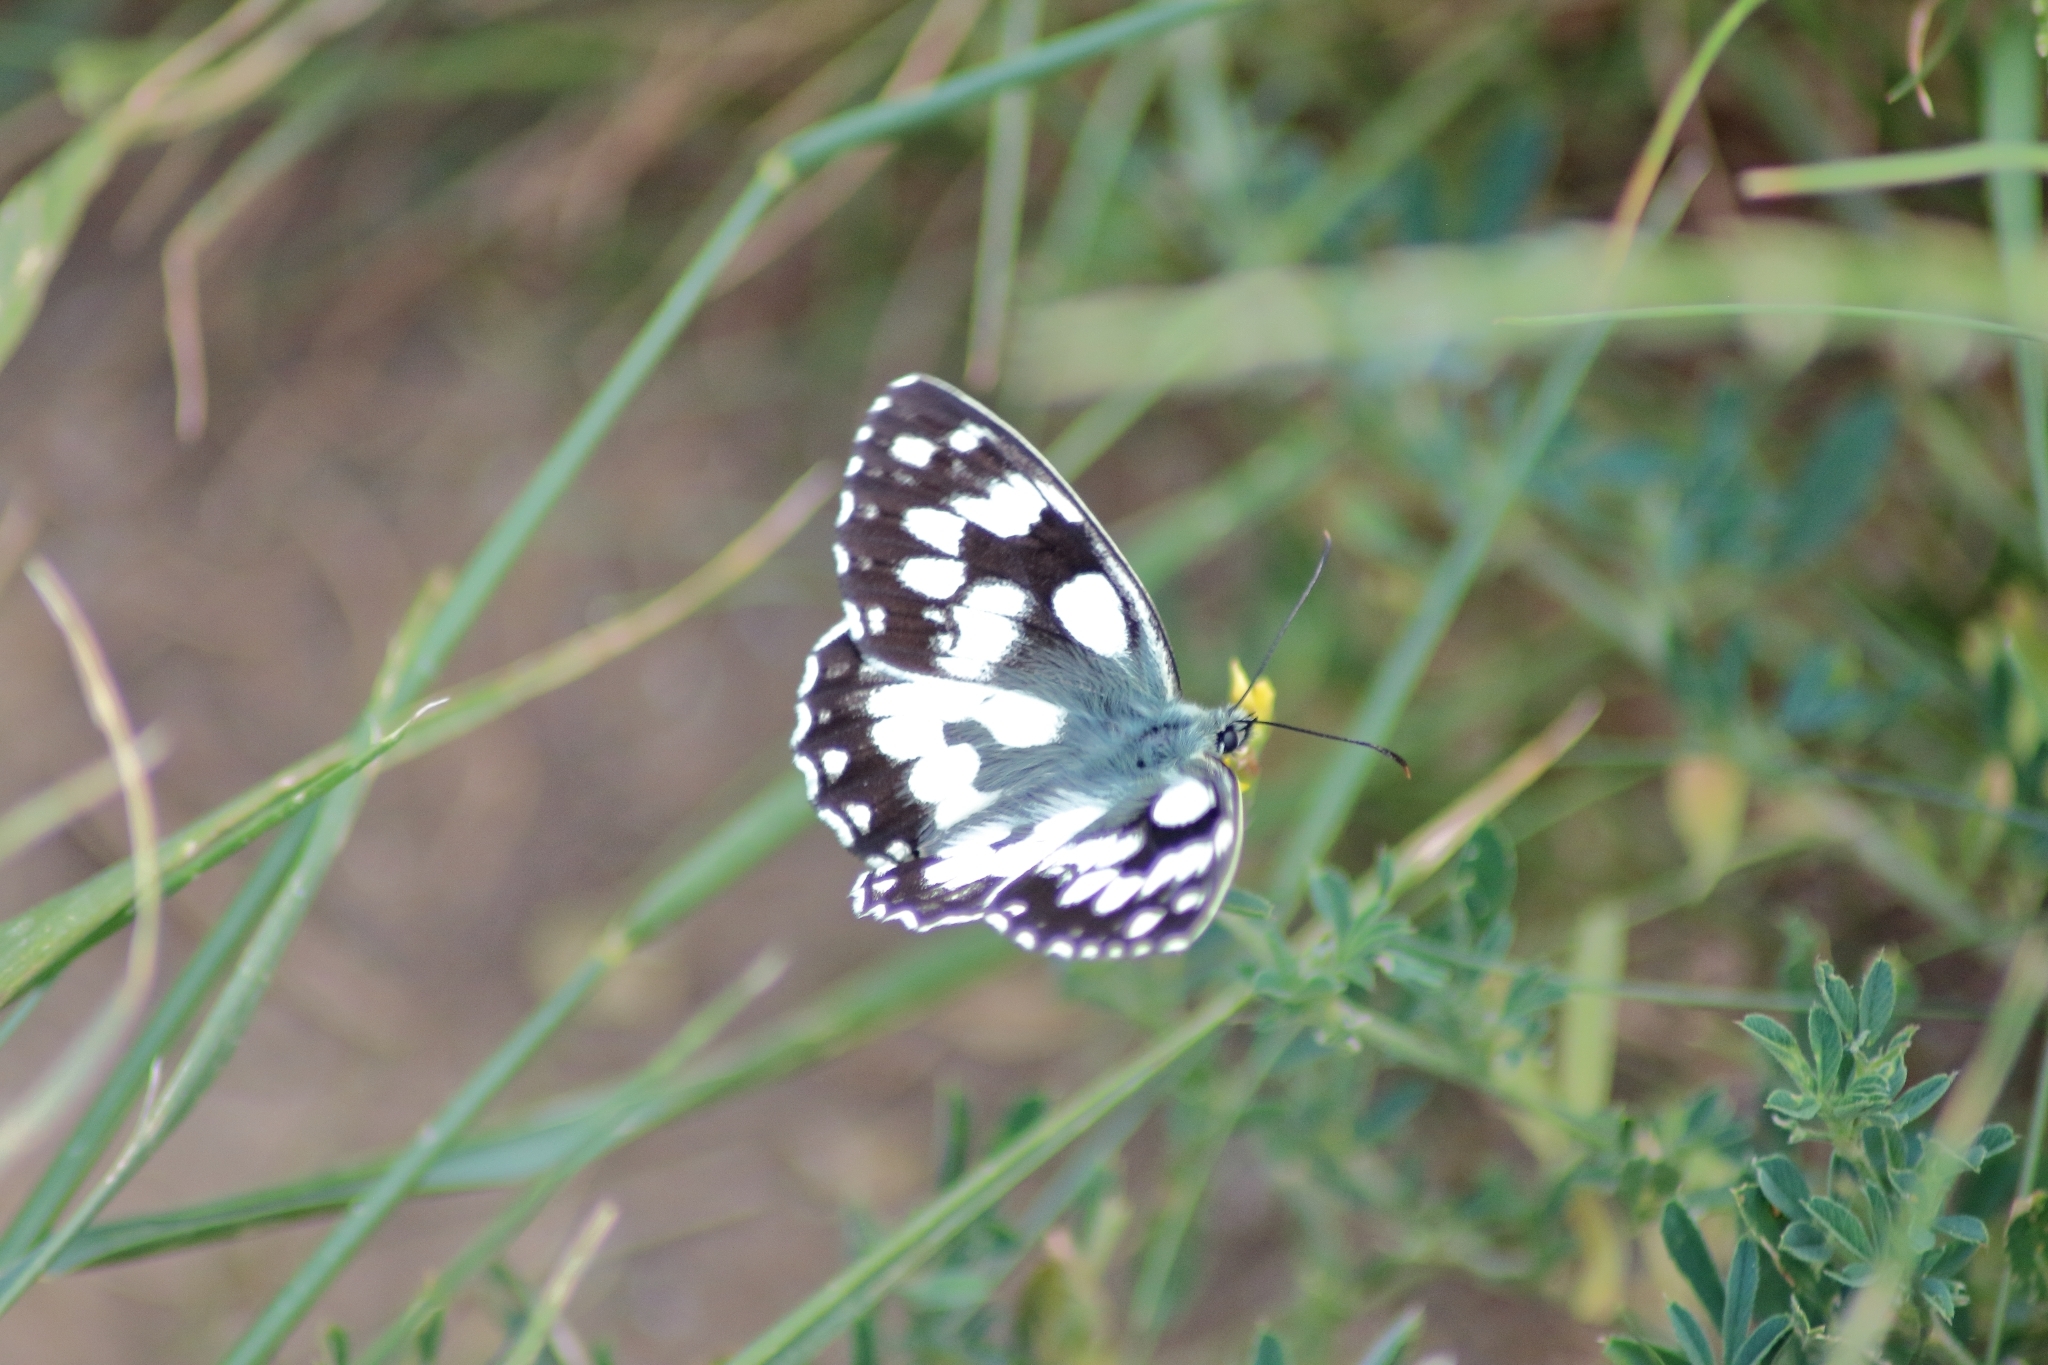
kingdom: Animalia
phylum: Arthropoda
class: Insecta
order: Lepidoptera
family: Nymphalidae
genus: Melanargia
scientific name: Melanargia galathea
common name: Marbled white
